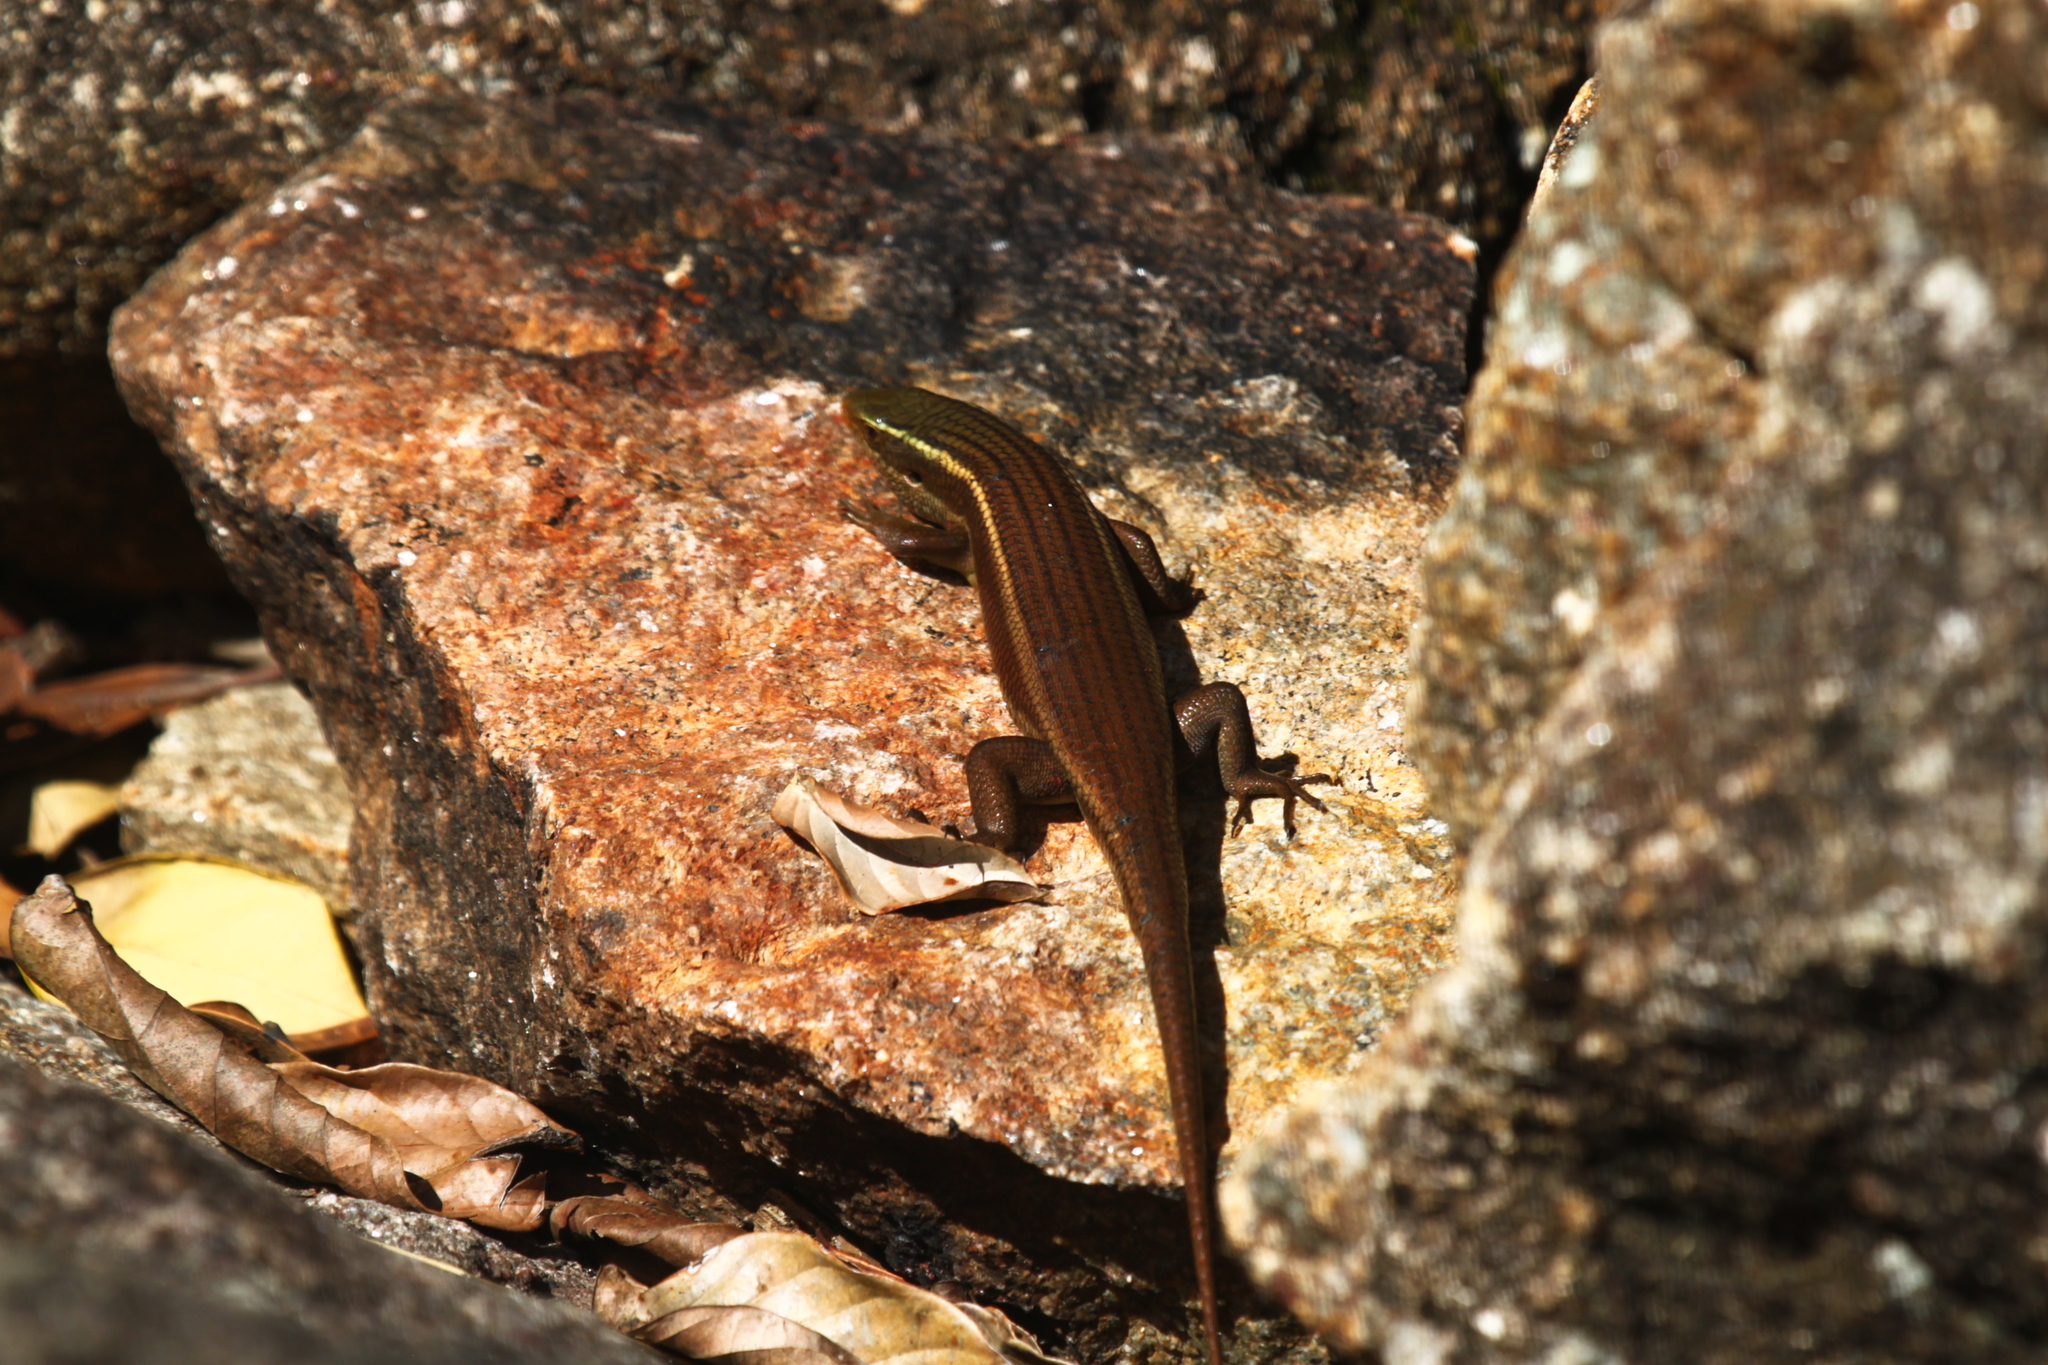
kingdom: Animalia
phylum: Chordata
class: Squamata
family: Scincidae
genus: Eutropis
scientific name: Eutropis carinata
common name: Keeled indian mabuya
